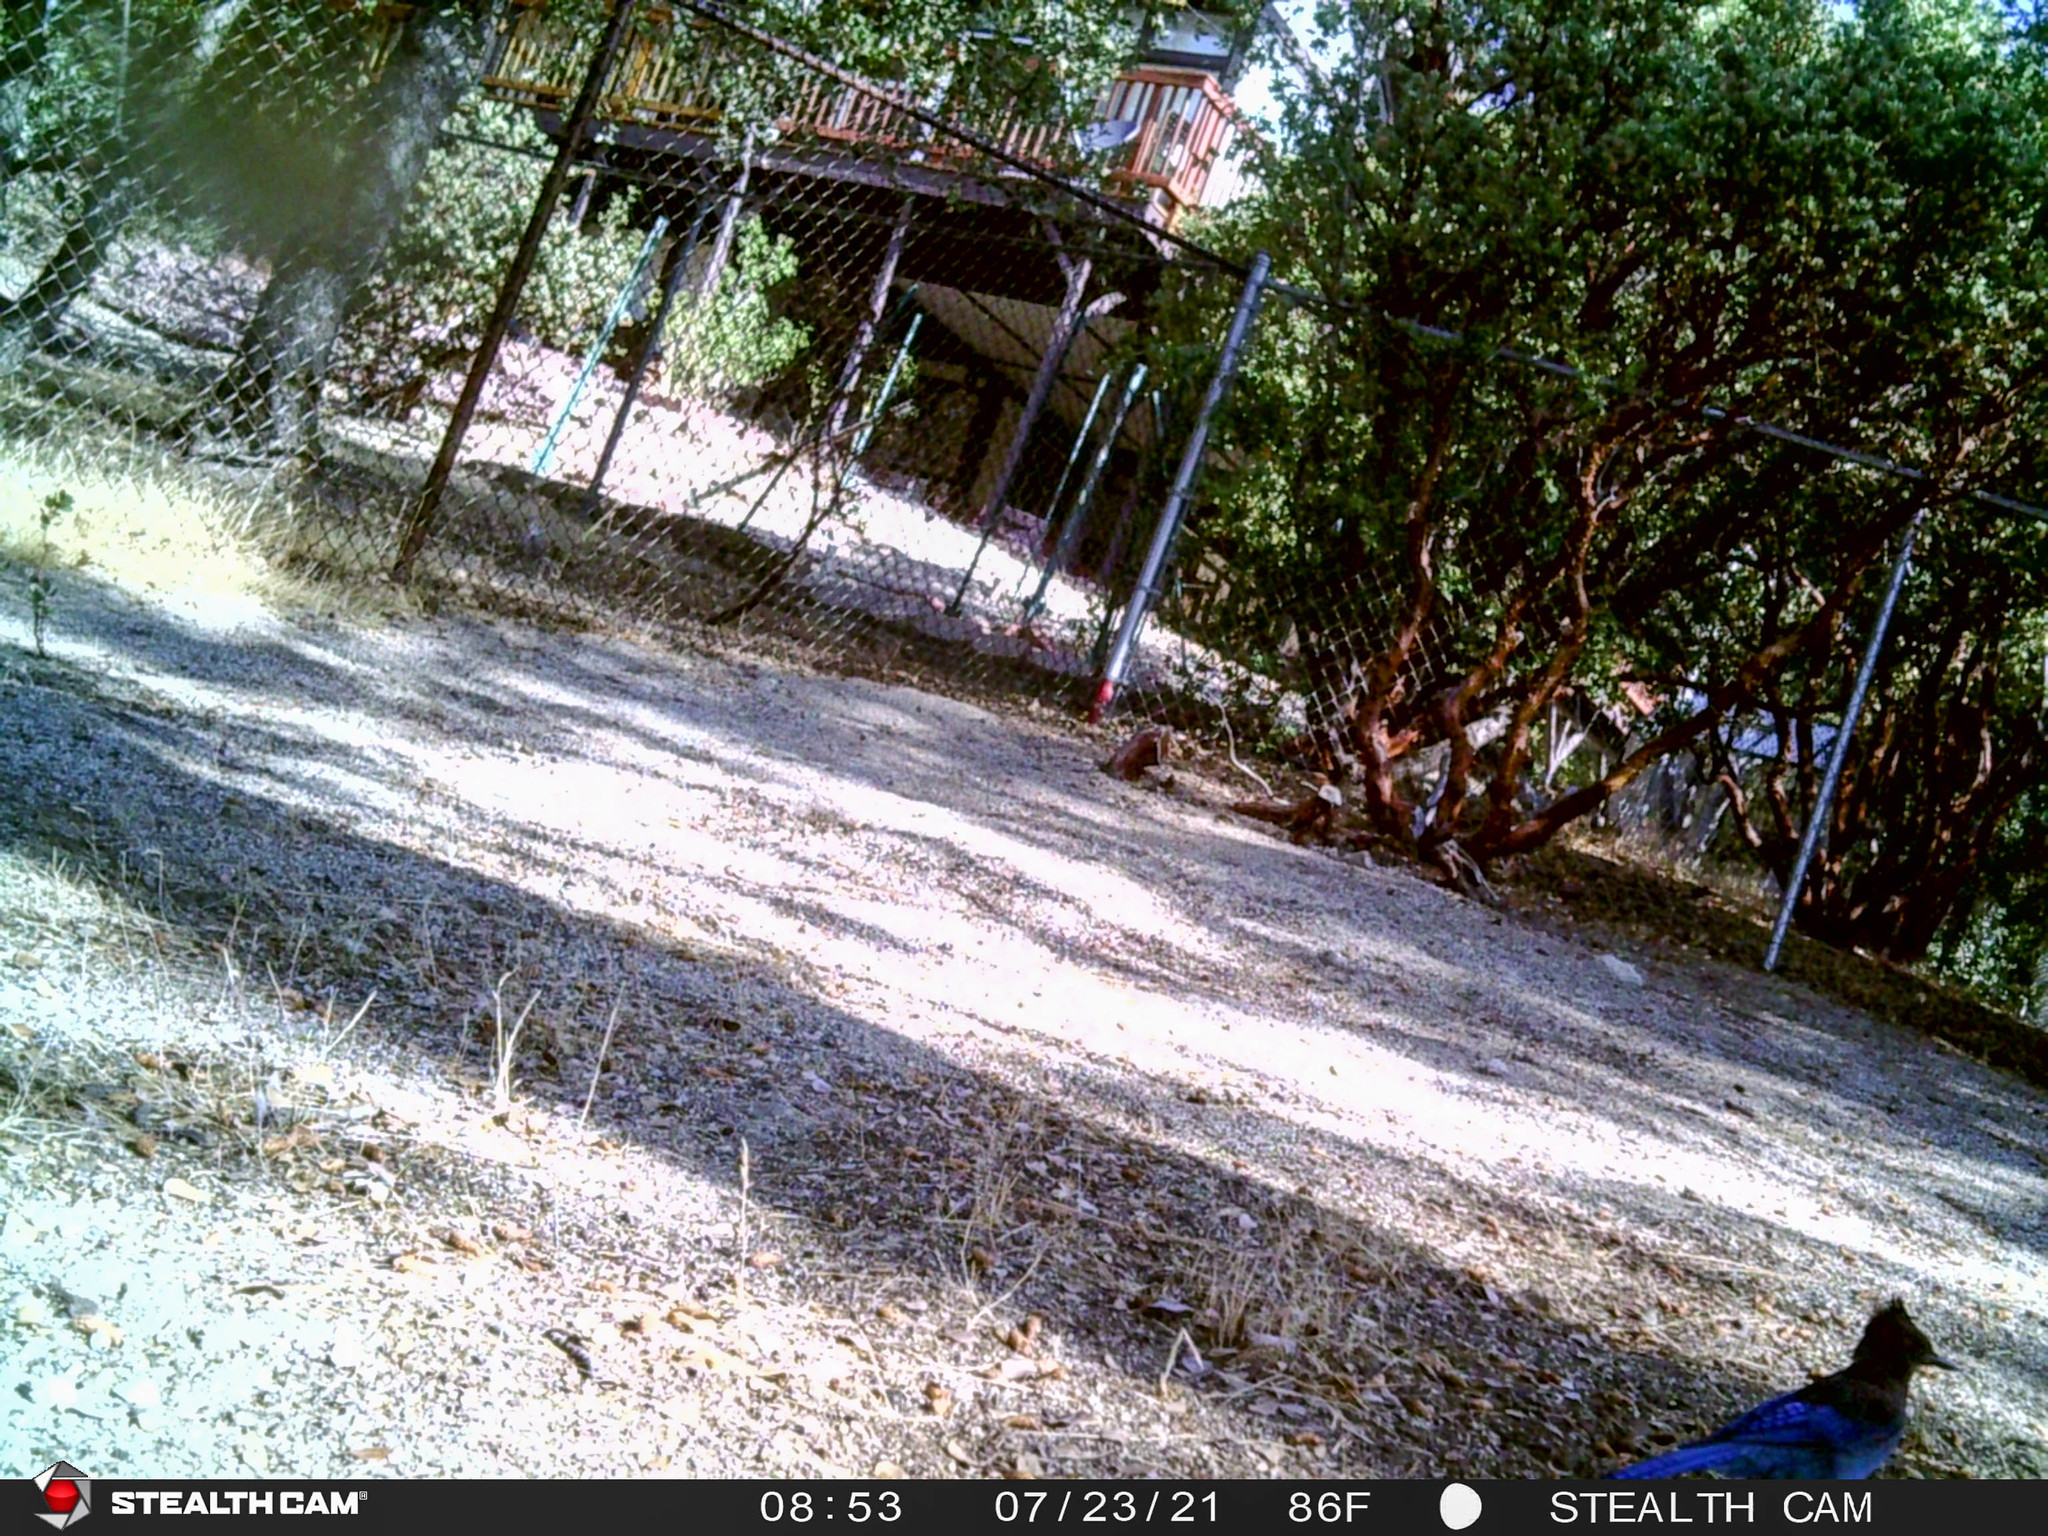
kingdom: Animalia
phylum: Chordata
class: Aves
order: Passeriformes
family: Corvidae
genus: Cyanocitta
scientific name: Cyanocitta stelleri
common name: Steller's jay
